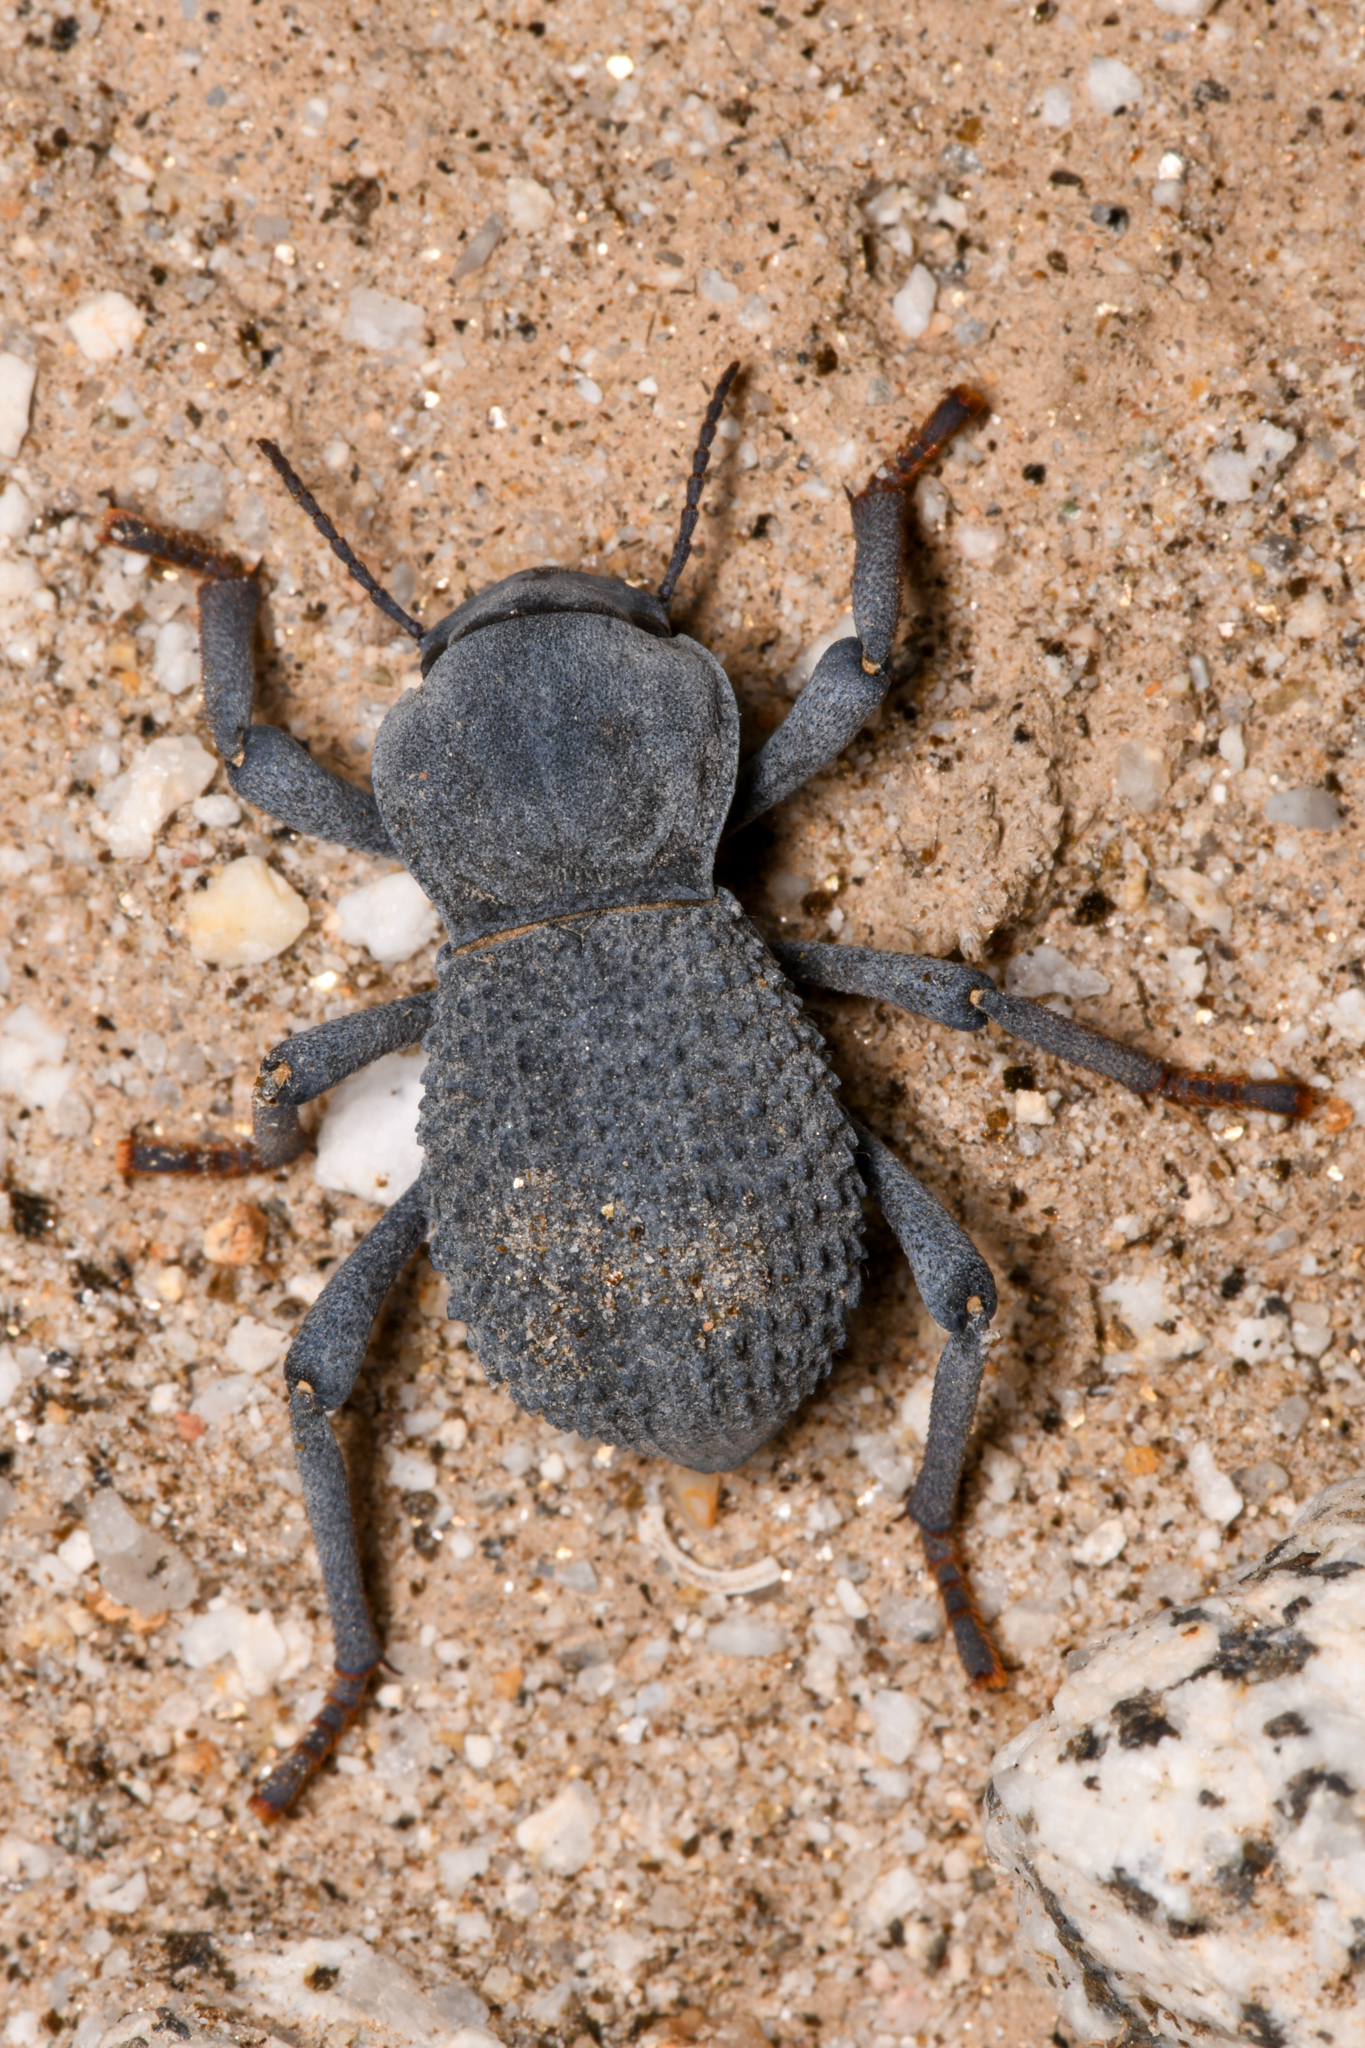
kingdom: Animalia
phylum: Arthropoda
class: Insecta
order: Coleoptera
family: Tenebrionidae
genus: Asbolus
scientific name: Asbolus verrucosus
